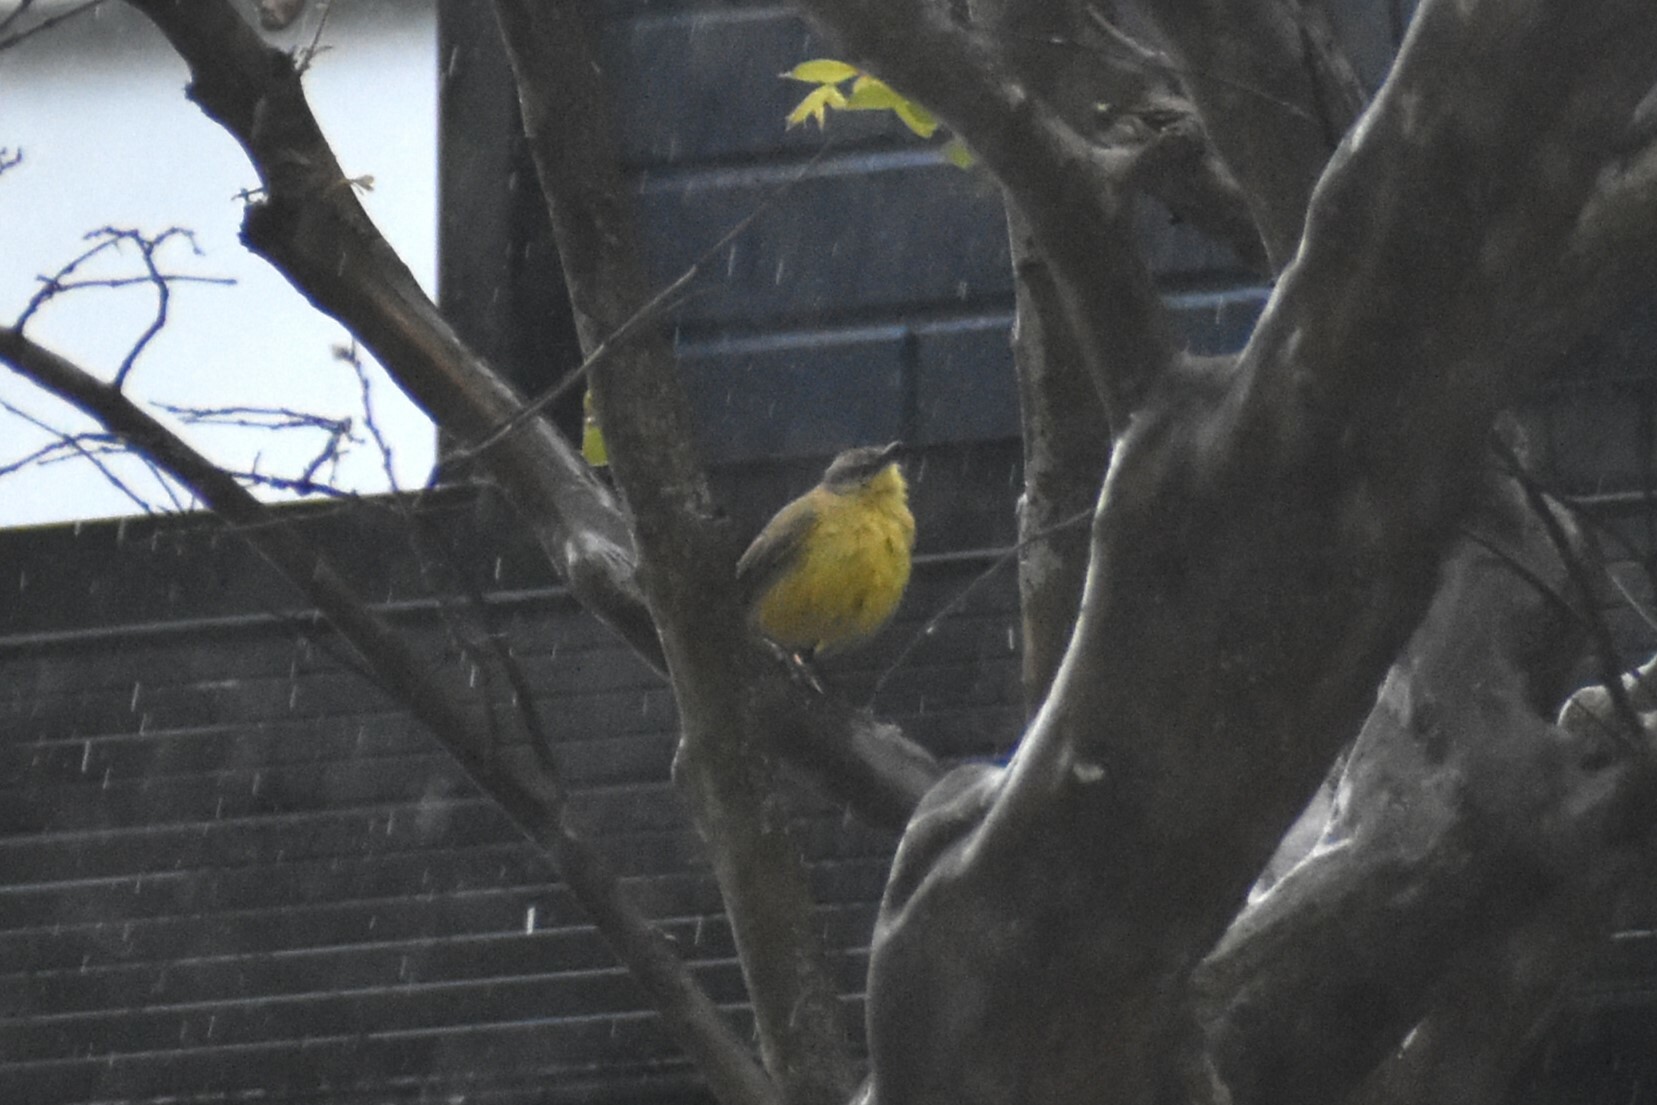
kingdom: Animalia
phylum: Chordata
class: Aves
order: Passeriformes
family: Tyrannidae
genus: Machetornis
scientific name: Machetornis rixosa
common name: Cattle tyrant
